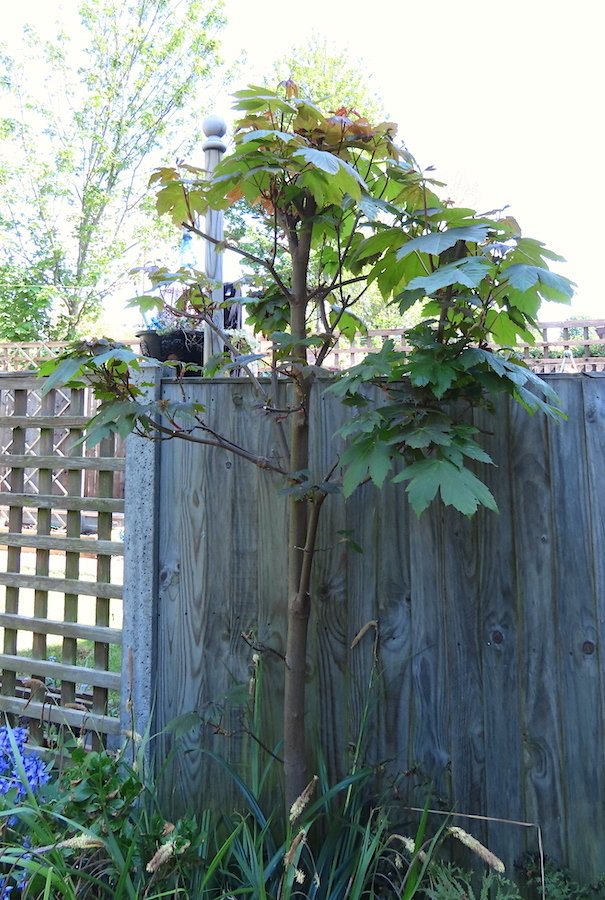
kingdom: Plantae
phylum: Tracheophyta
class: Magnoliopsida
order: Sapindales
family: Sapindaceae
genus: Acer
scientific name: Acer pseudoplatanus
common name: Sycamore
